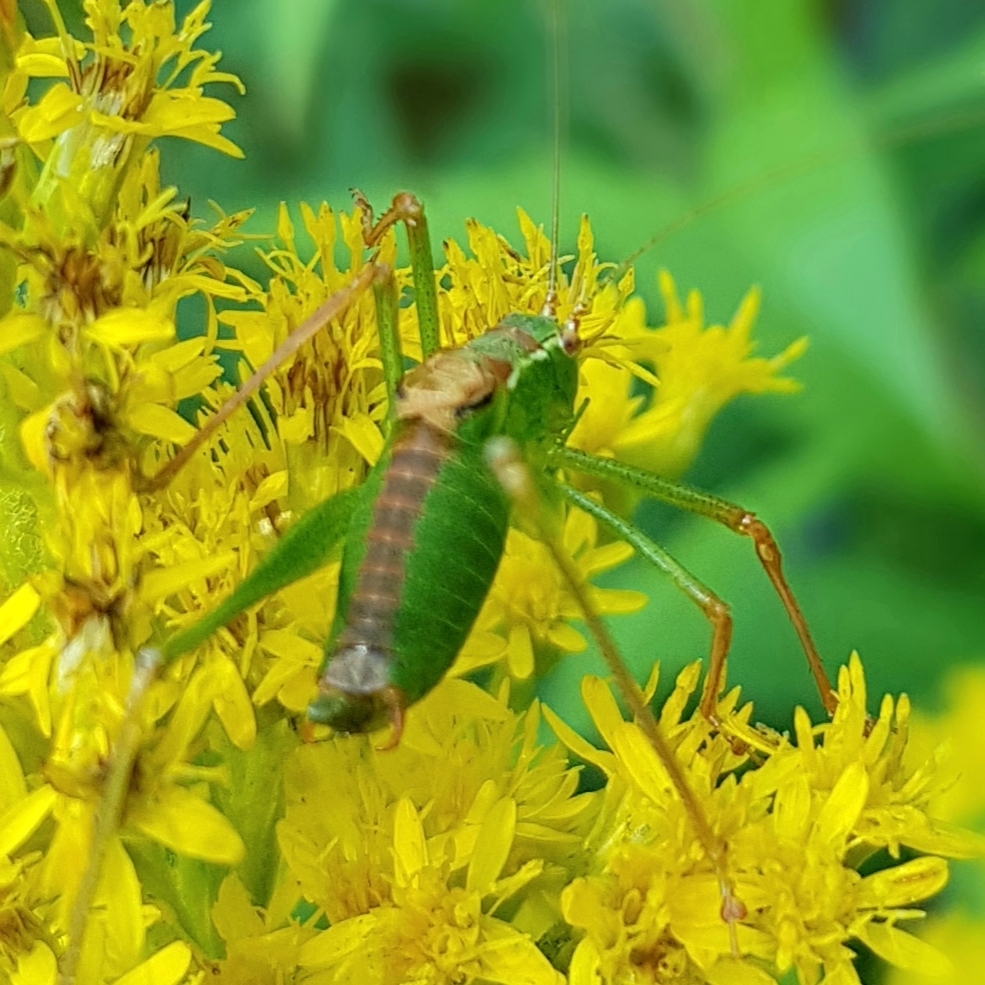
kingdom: Animalia
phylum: Arthropoda
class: Insecta
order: Orthoptera
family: Tettigoniidae
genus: Leptophyes
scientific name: Leptophyes punctatissima
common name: Speckled bush-cricket
